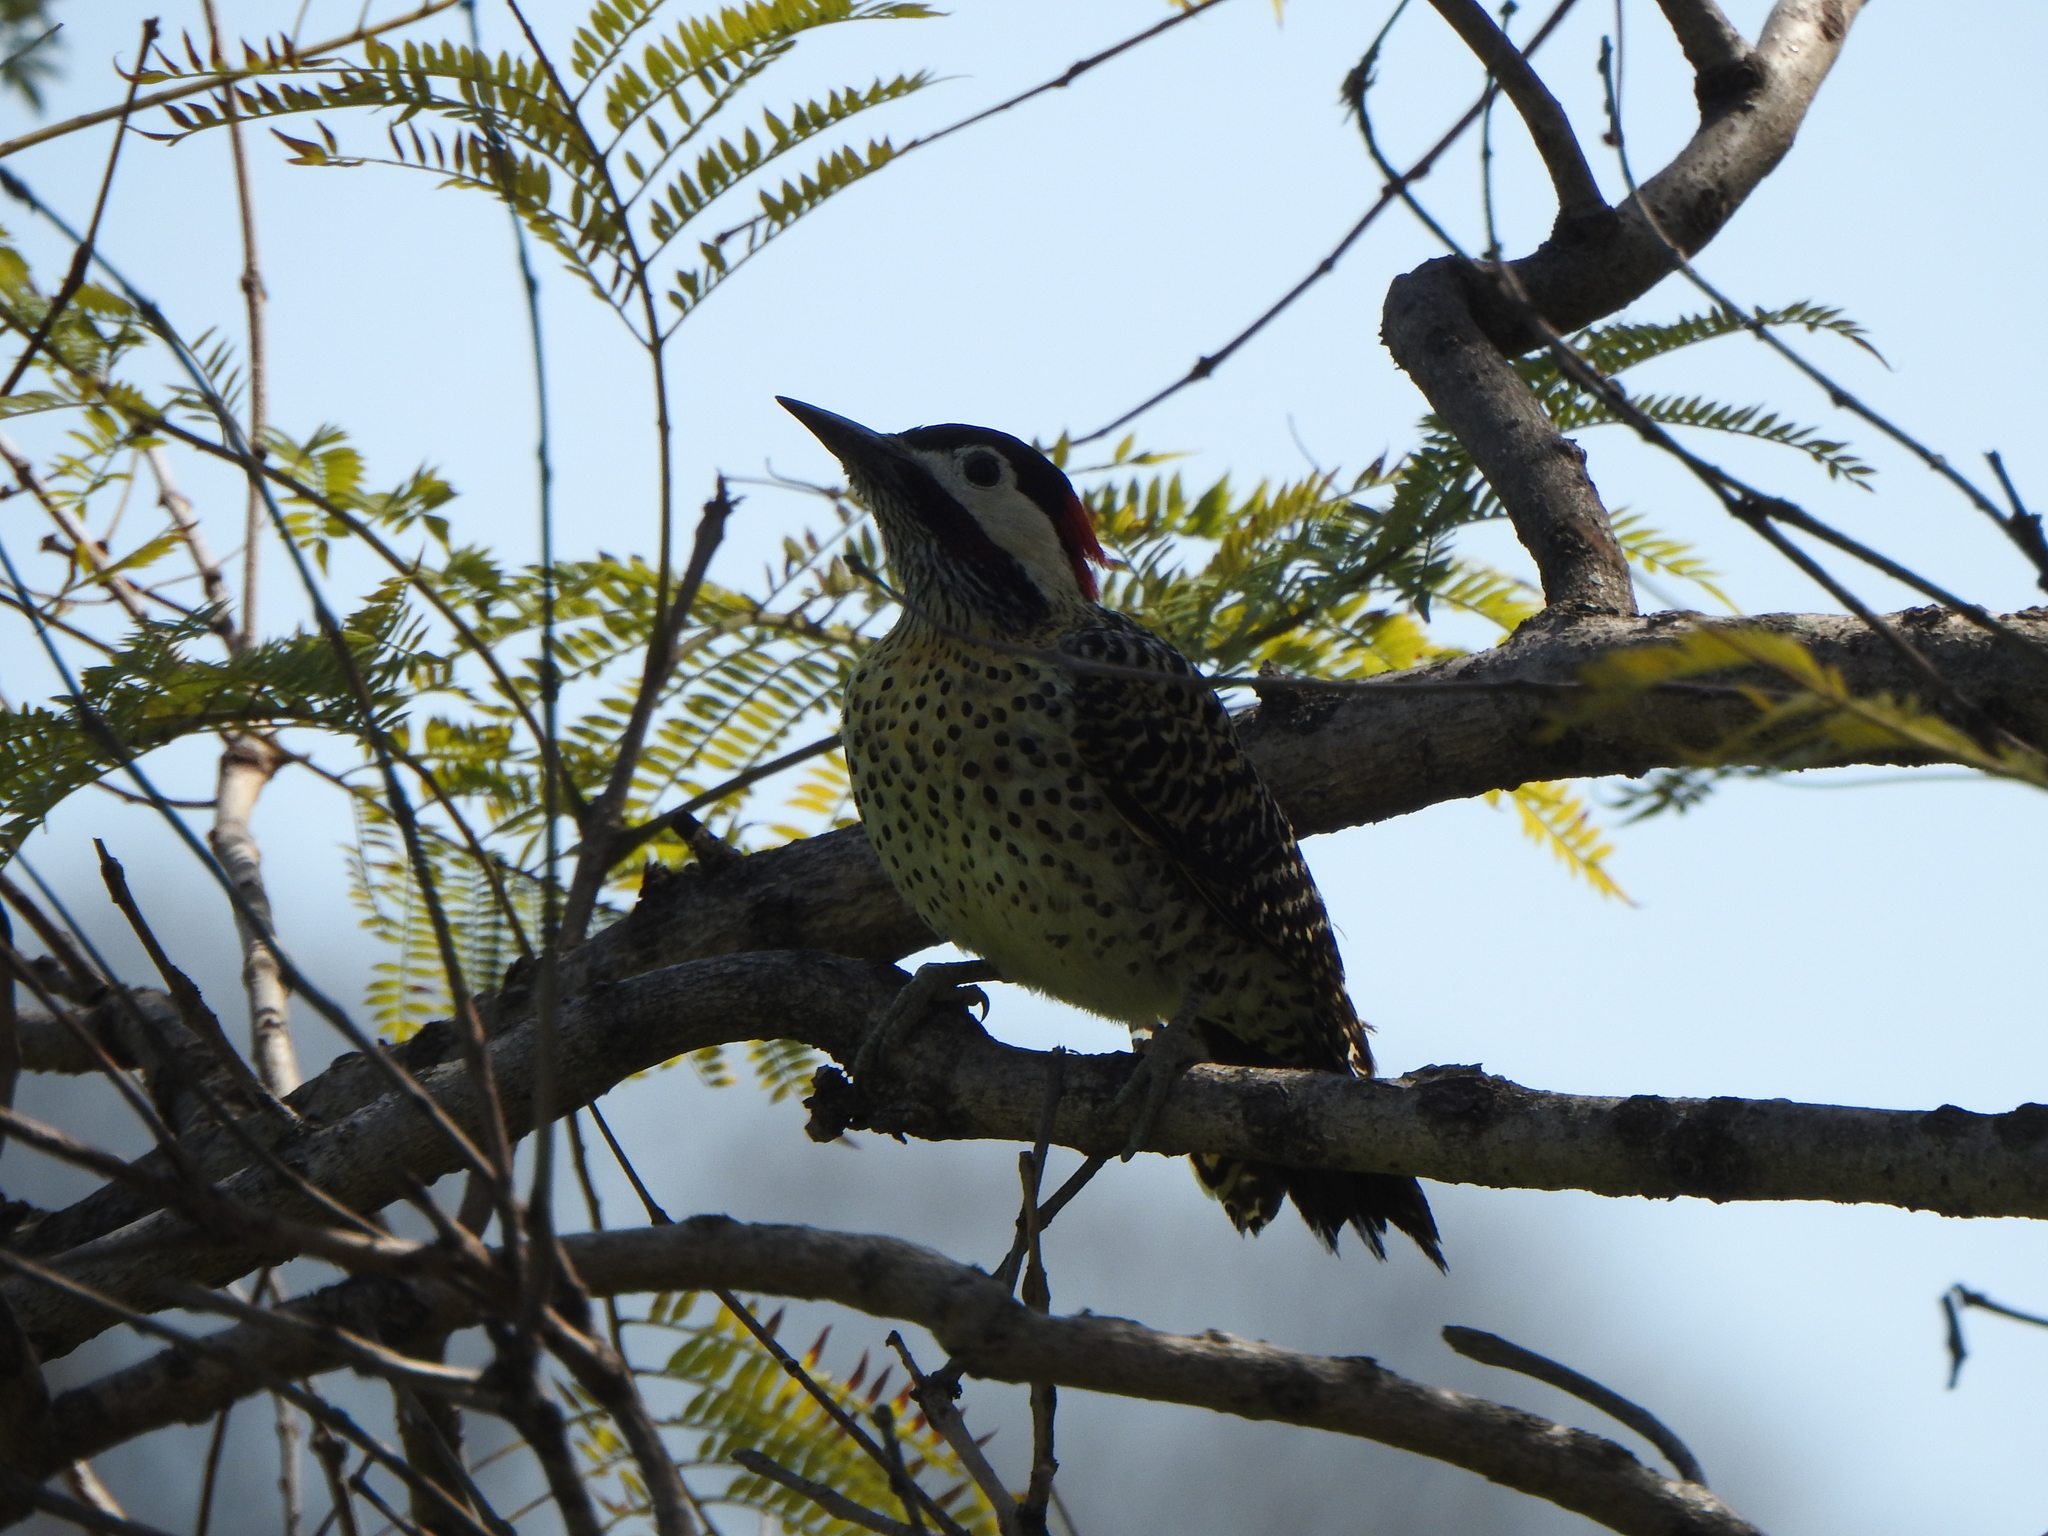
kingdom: Animalia
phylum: Chordata
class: Aves
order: Piciformes
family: Picidae
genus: Colaptes
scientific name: Colaptes melanochloros
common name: Green-barred woodpecker
